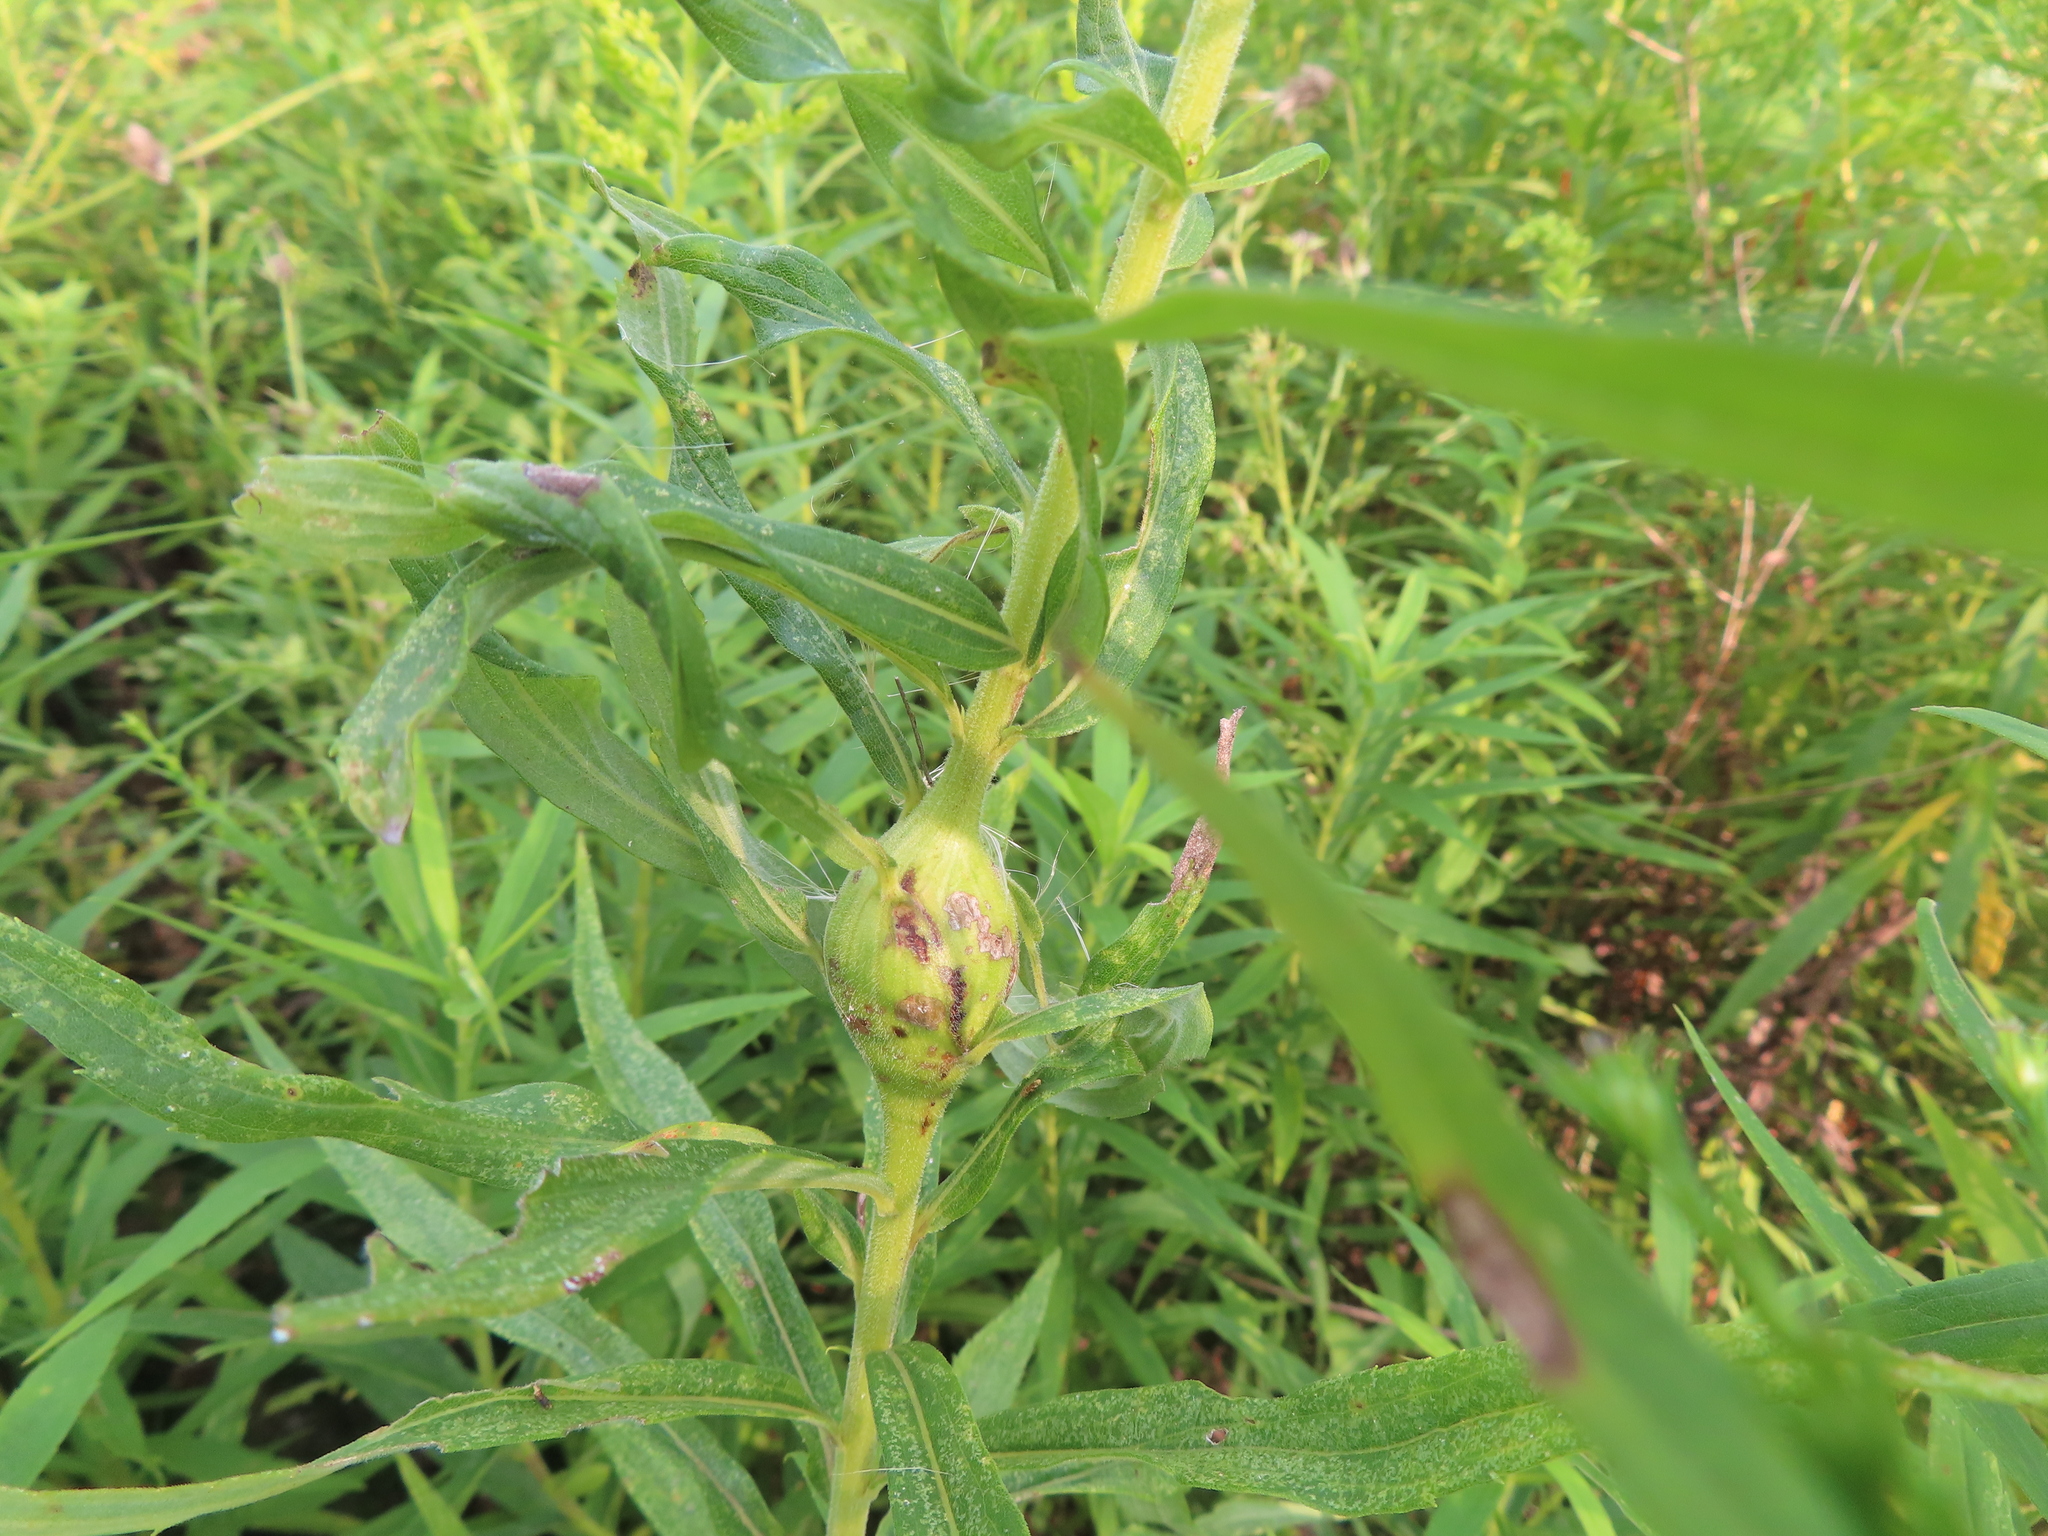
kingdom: Animalia
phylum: Arthropoda
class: Insecta
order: Diptera
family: Tephritidae
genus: Eurosta
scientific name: Eurosta solidaginis
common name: Goldenrod gall fly
